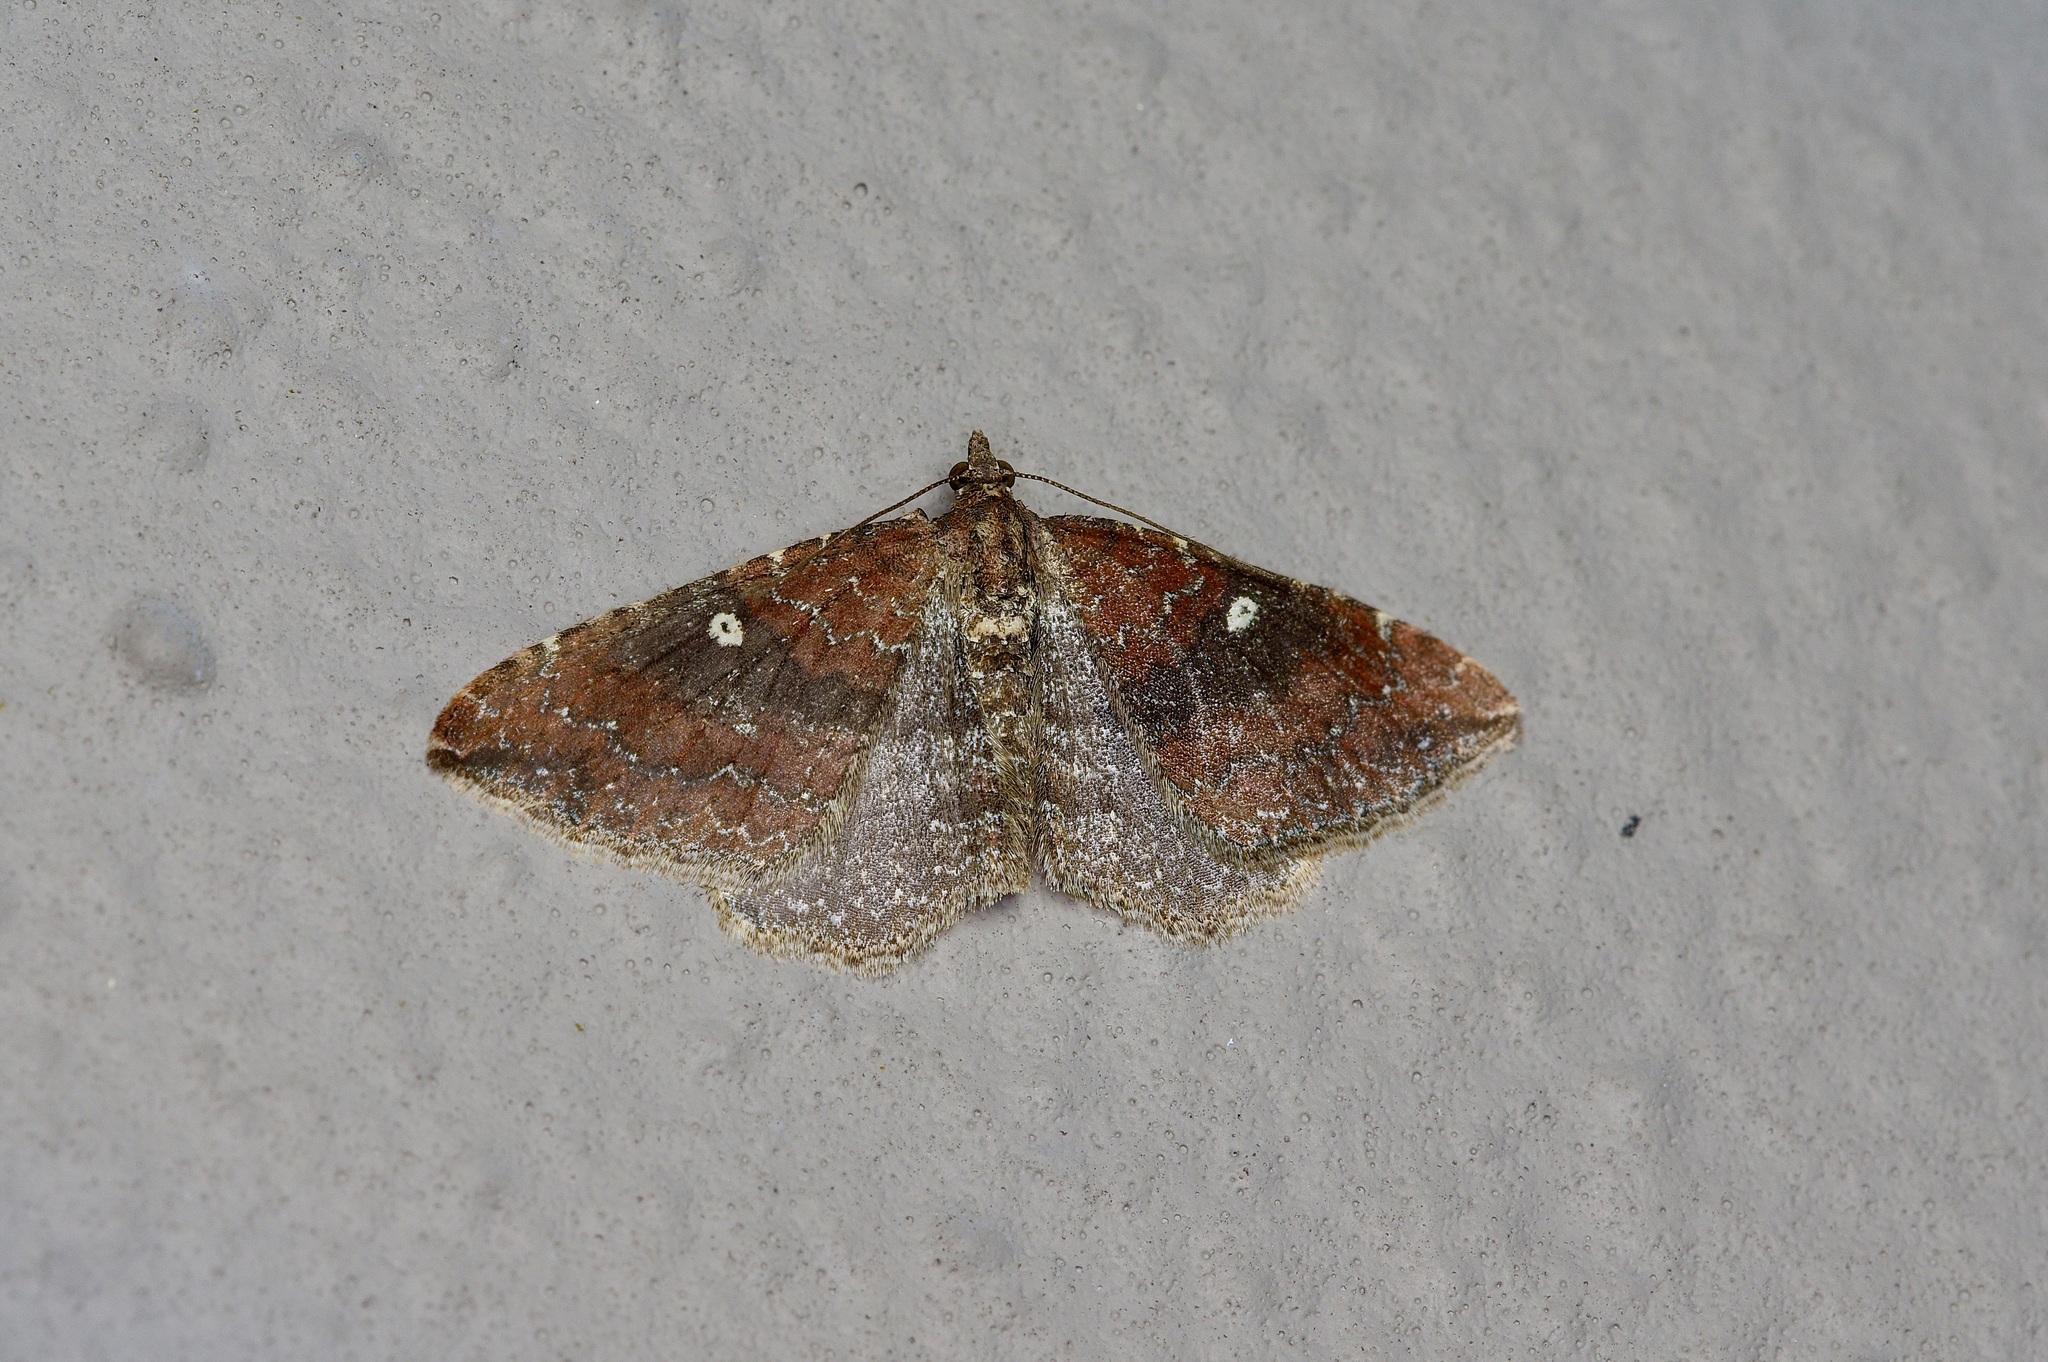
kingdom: Animalia
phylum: Arthropoda
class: Insecta
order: Lepidoptera
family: Geometridae
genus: Orthonama
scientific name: Orthonama obstipata
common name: The gem
